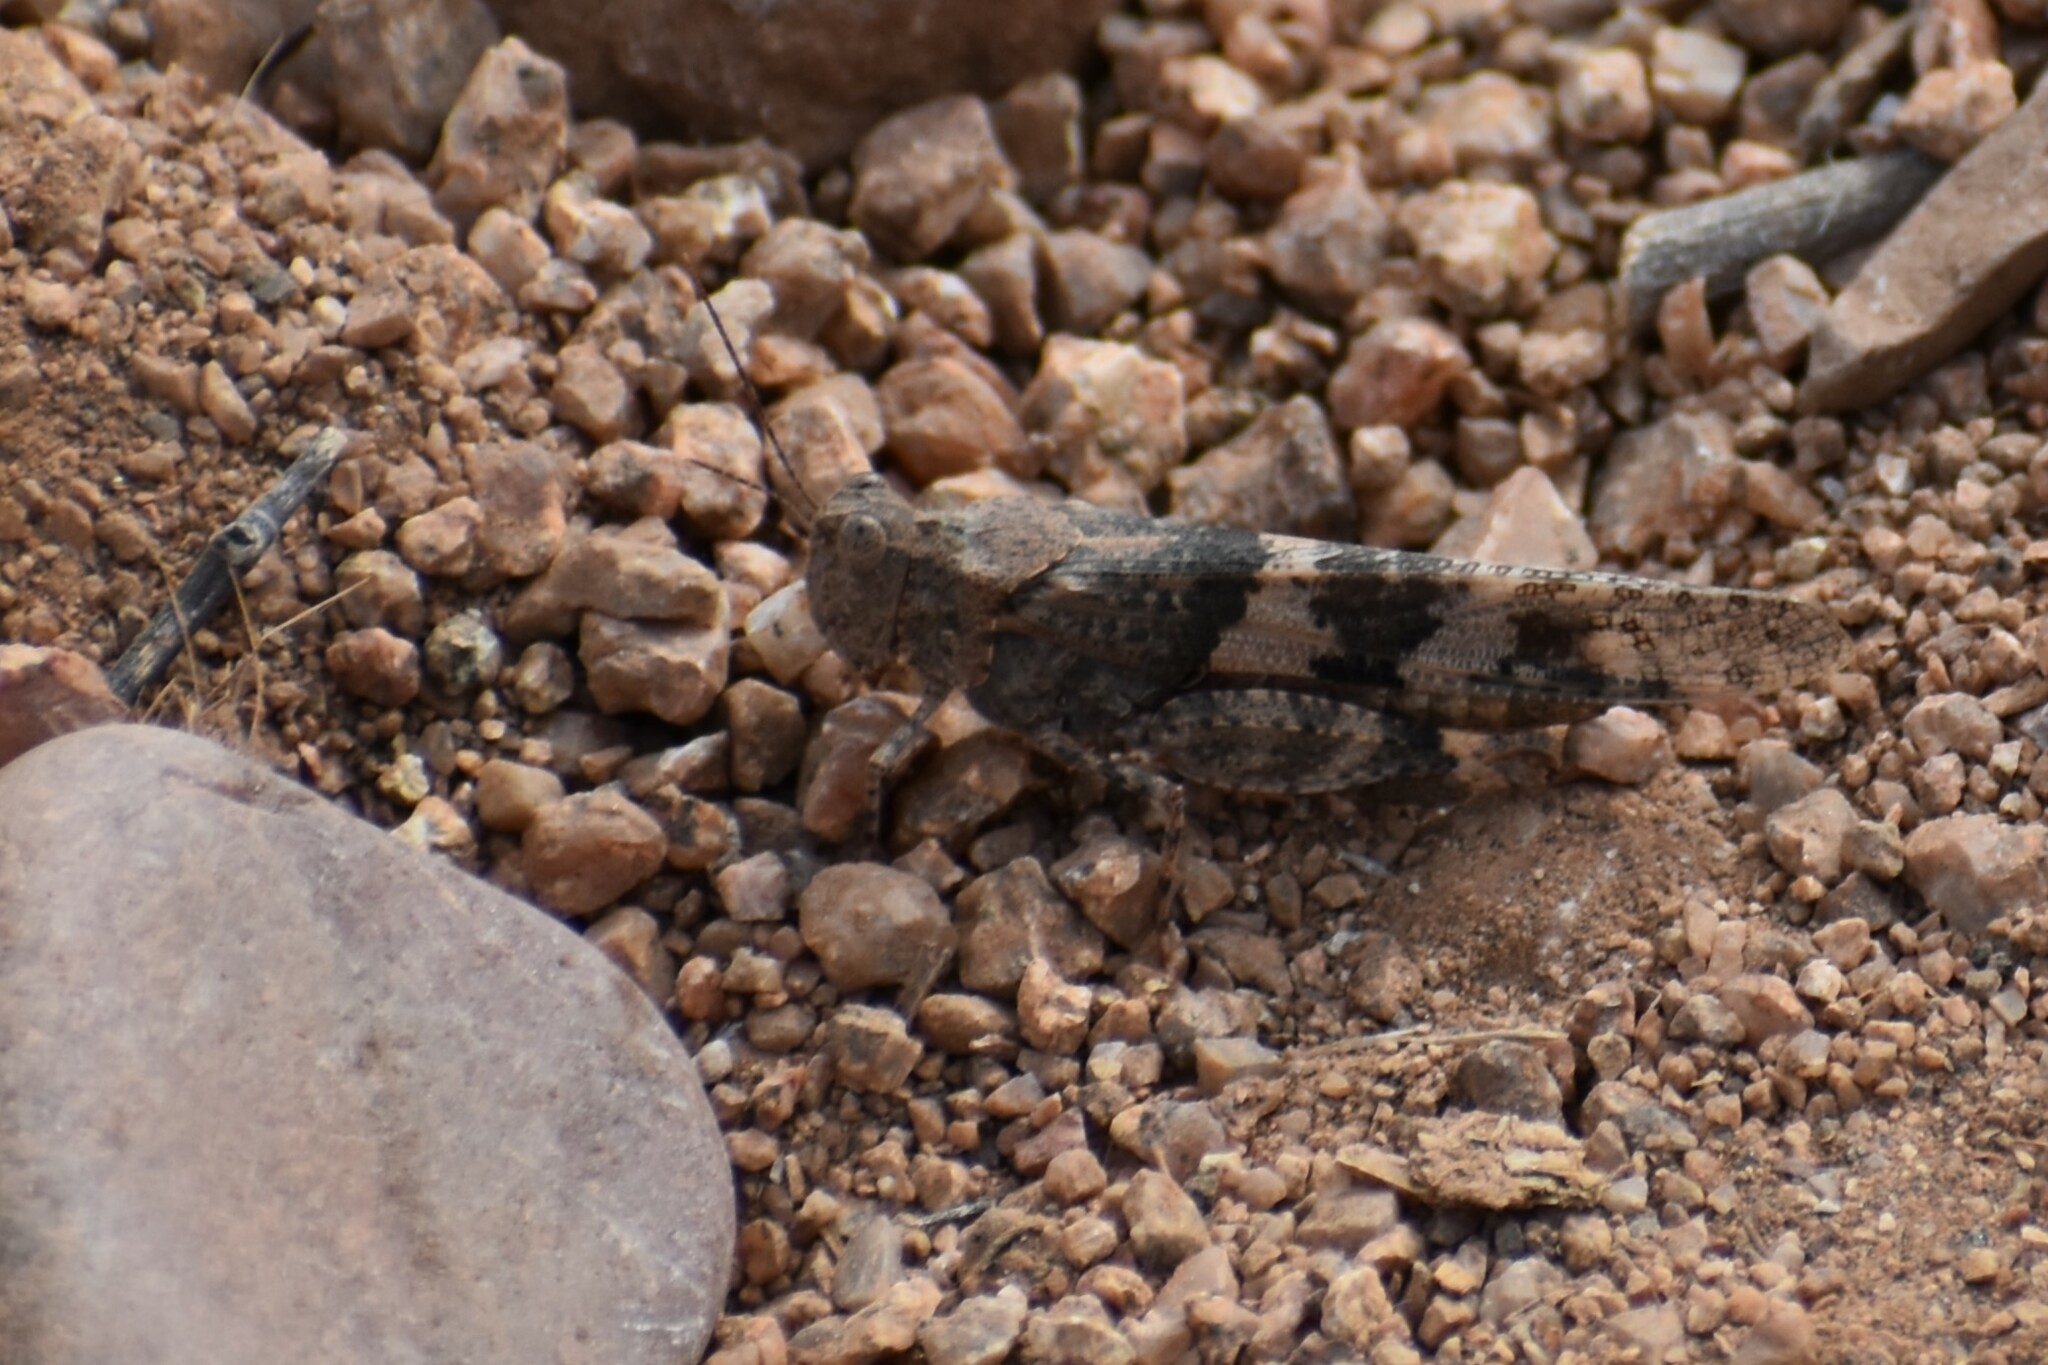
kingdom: Animalia
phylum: Arthropoda
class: Insecta
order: Orthoptera
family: Acrididae
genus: Trimerotropis
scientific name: Trimerotropis pallidipennis
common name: Pallid-winged grasshopper
